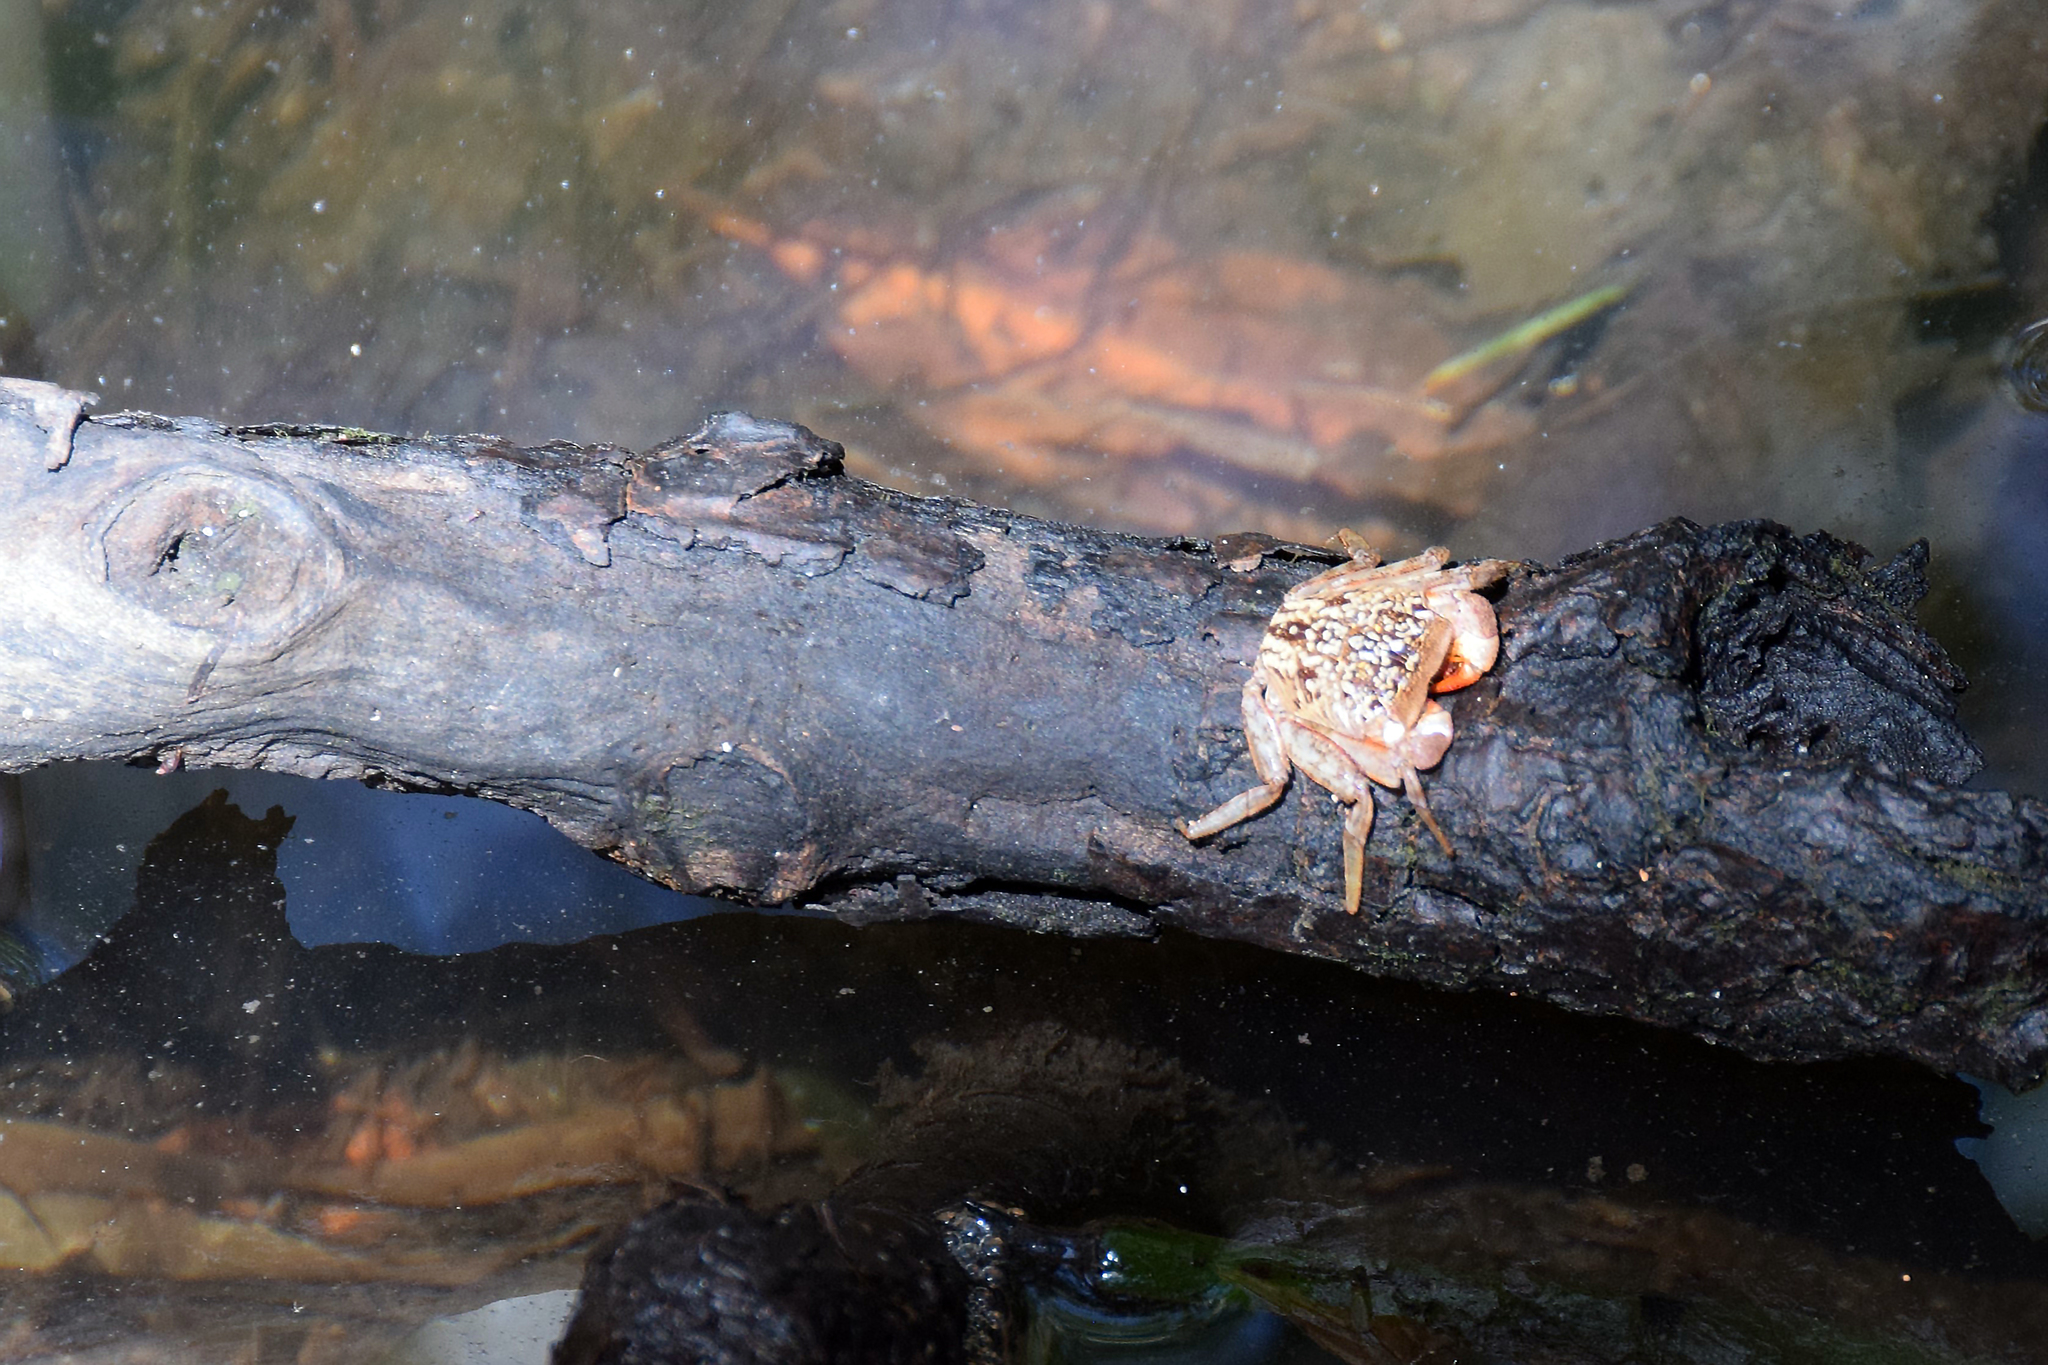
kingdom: Animalia
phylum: Arthropoda
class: Malacostraca
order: Decapoda
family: Sesarmidae
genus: Aratus
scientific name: Aratus pisonii
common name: Mangrove crab
